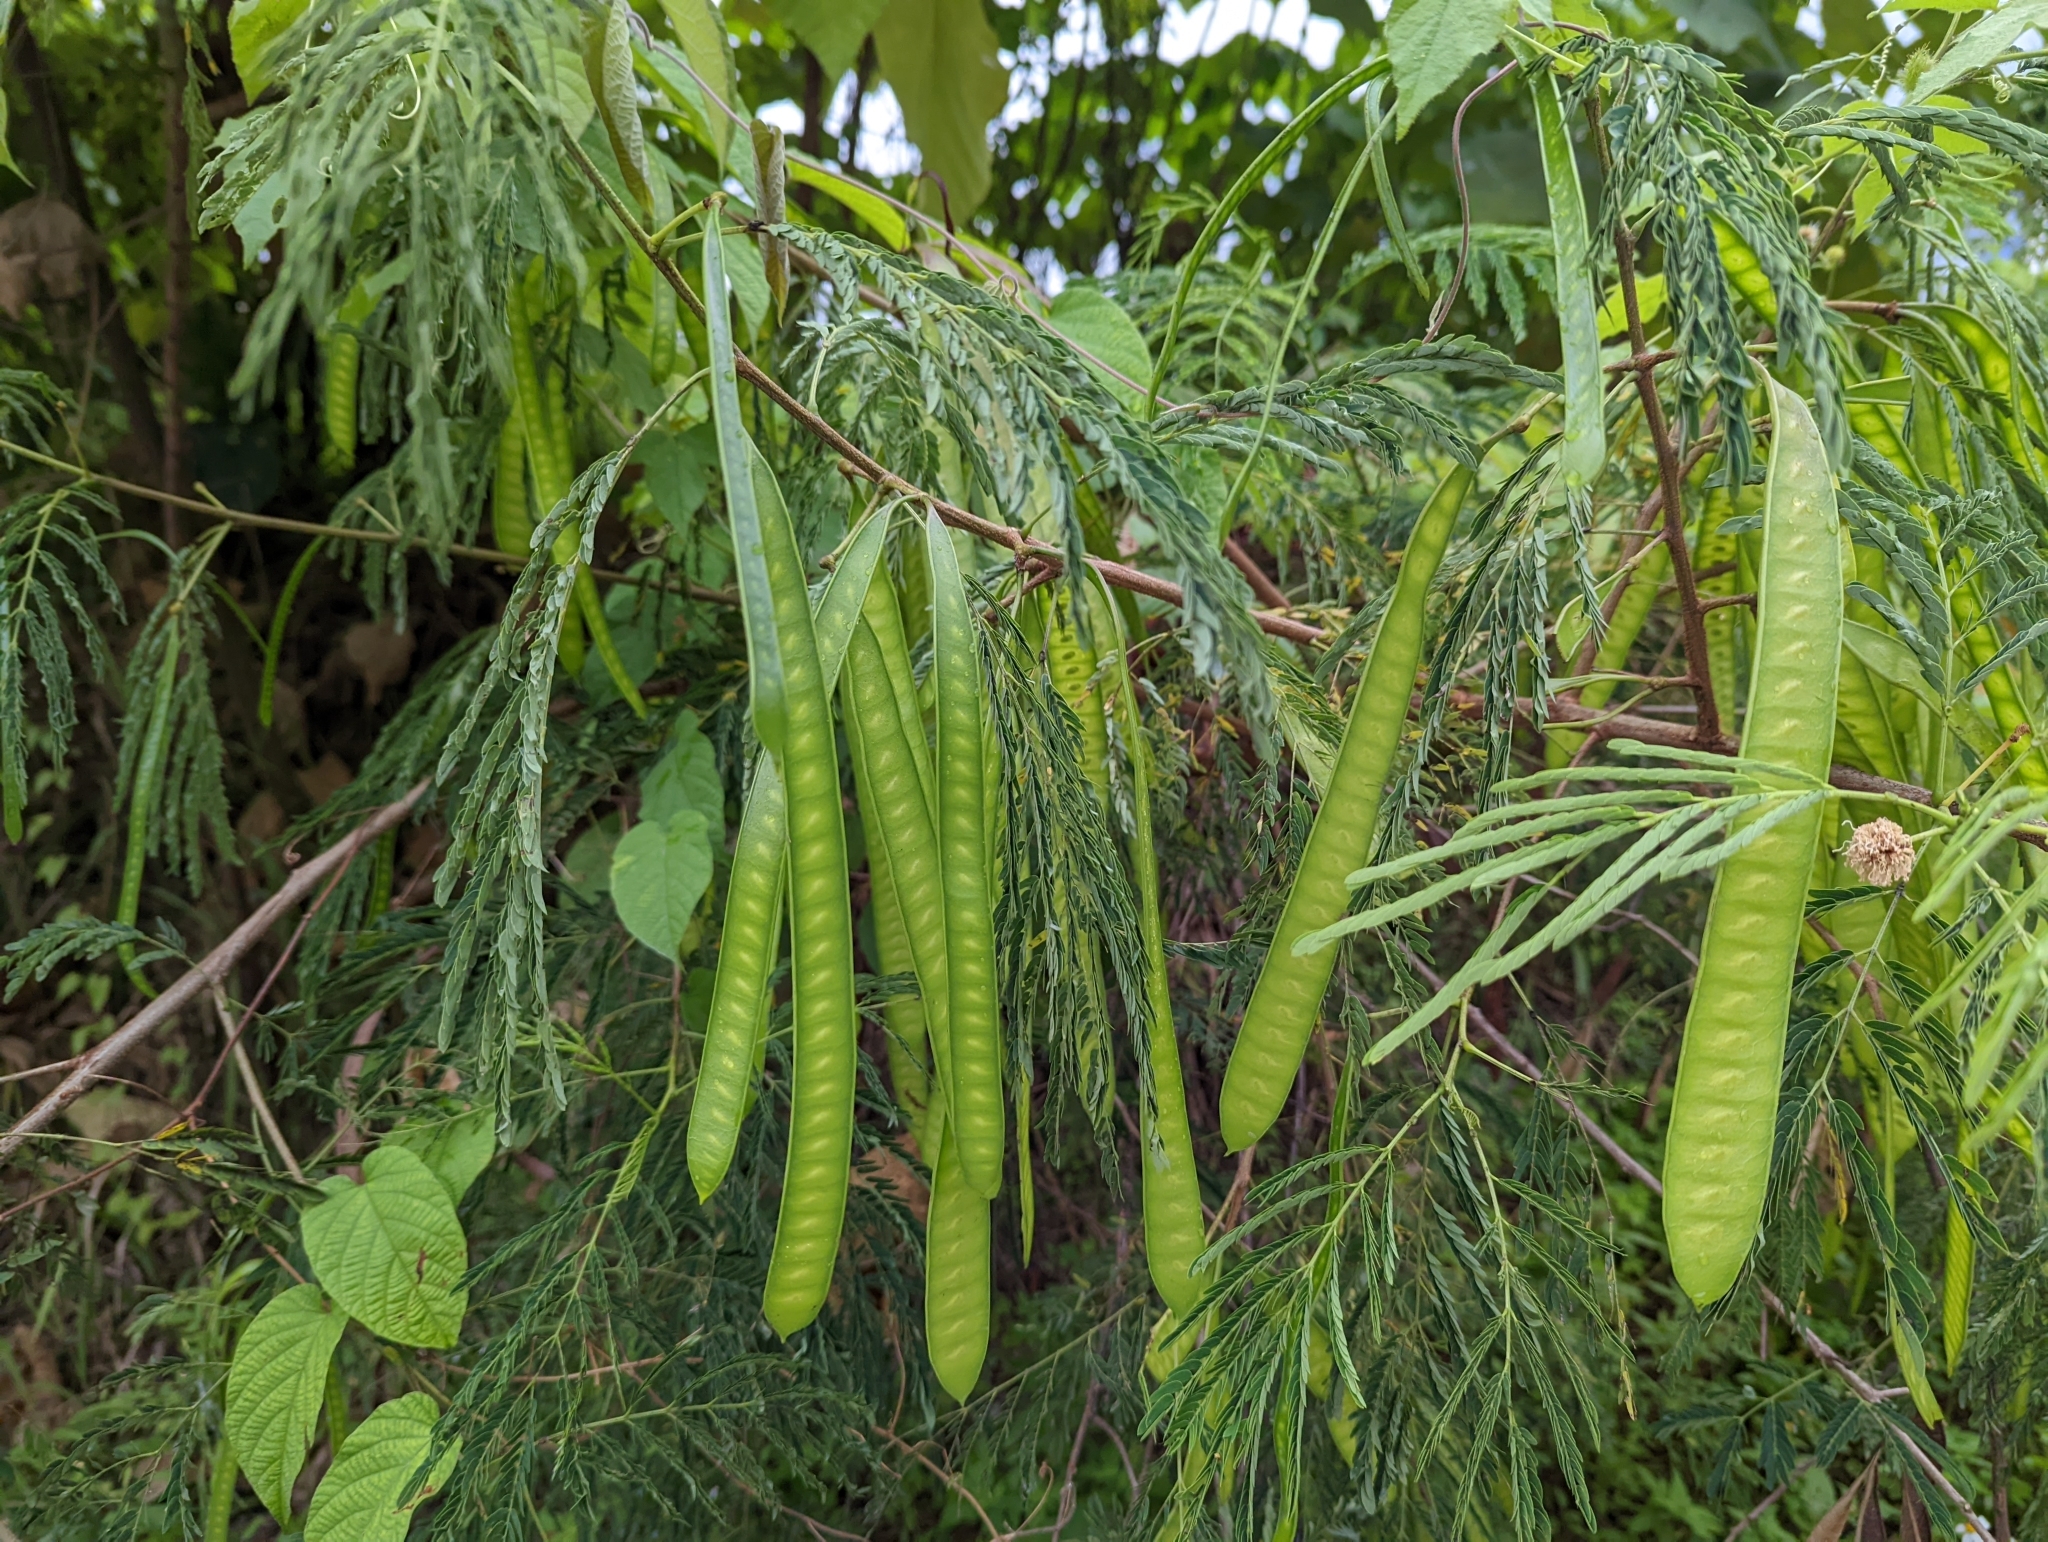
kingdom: Plantae
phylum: Tracheophyta
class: Magnoliopsida
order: Fabales
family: Fabaceae
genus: Leucaena
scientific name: Leucaena leucocephala
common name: White leadtree
